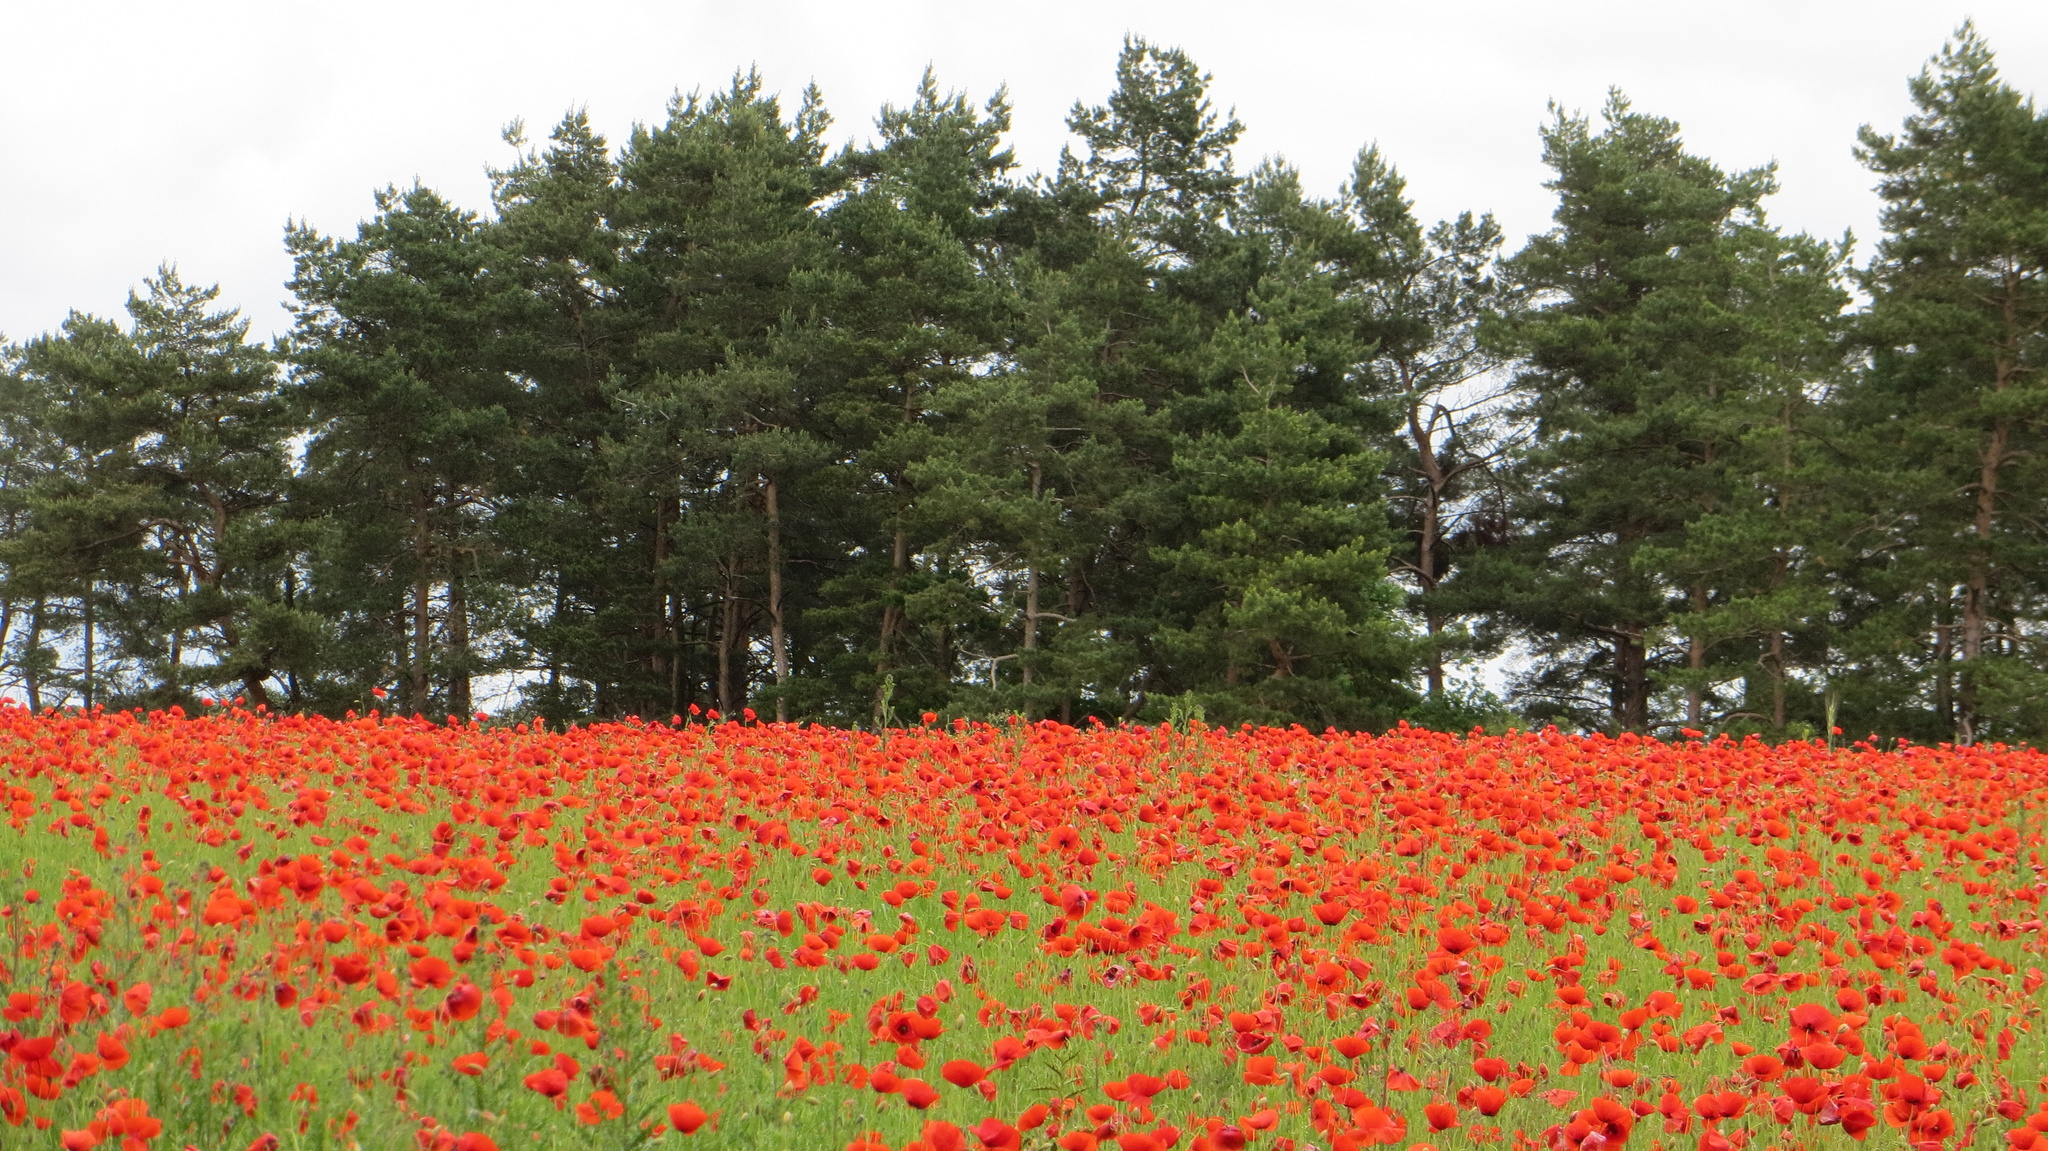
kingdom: Plantae
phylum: Tracheophyta
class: Magnoliopsida
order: Ranunculales
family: Papaveraceae
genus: Papaver
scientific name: Papaver rhoeas
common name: Corn poppy
